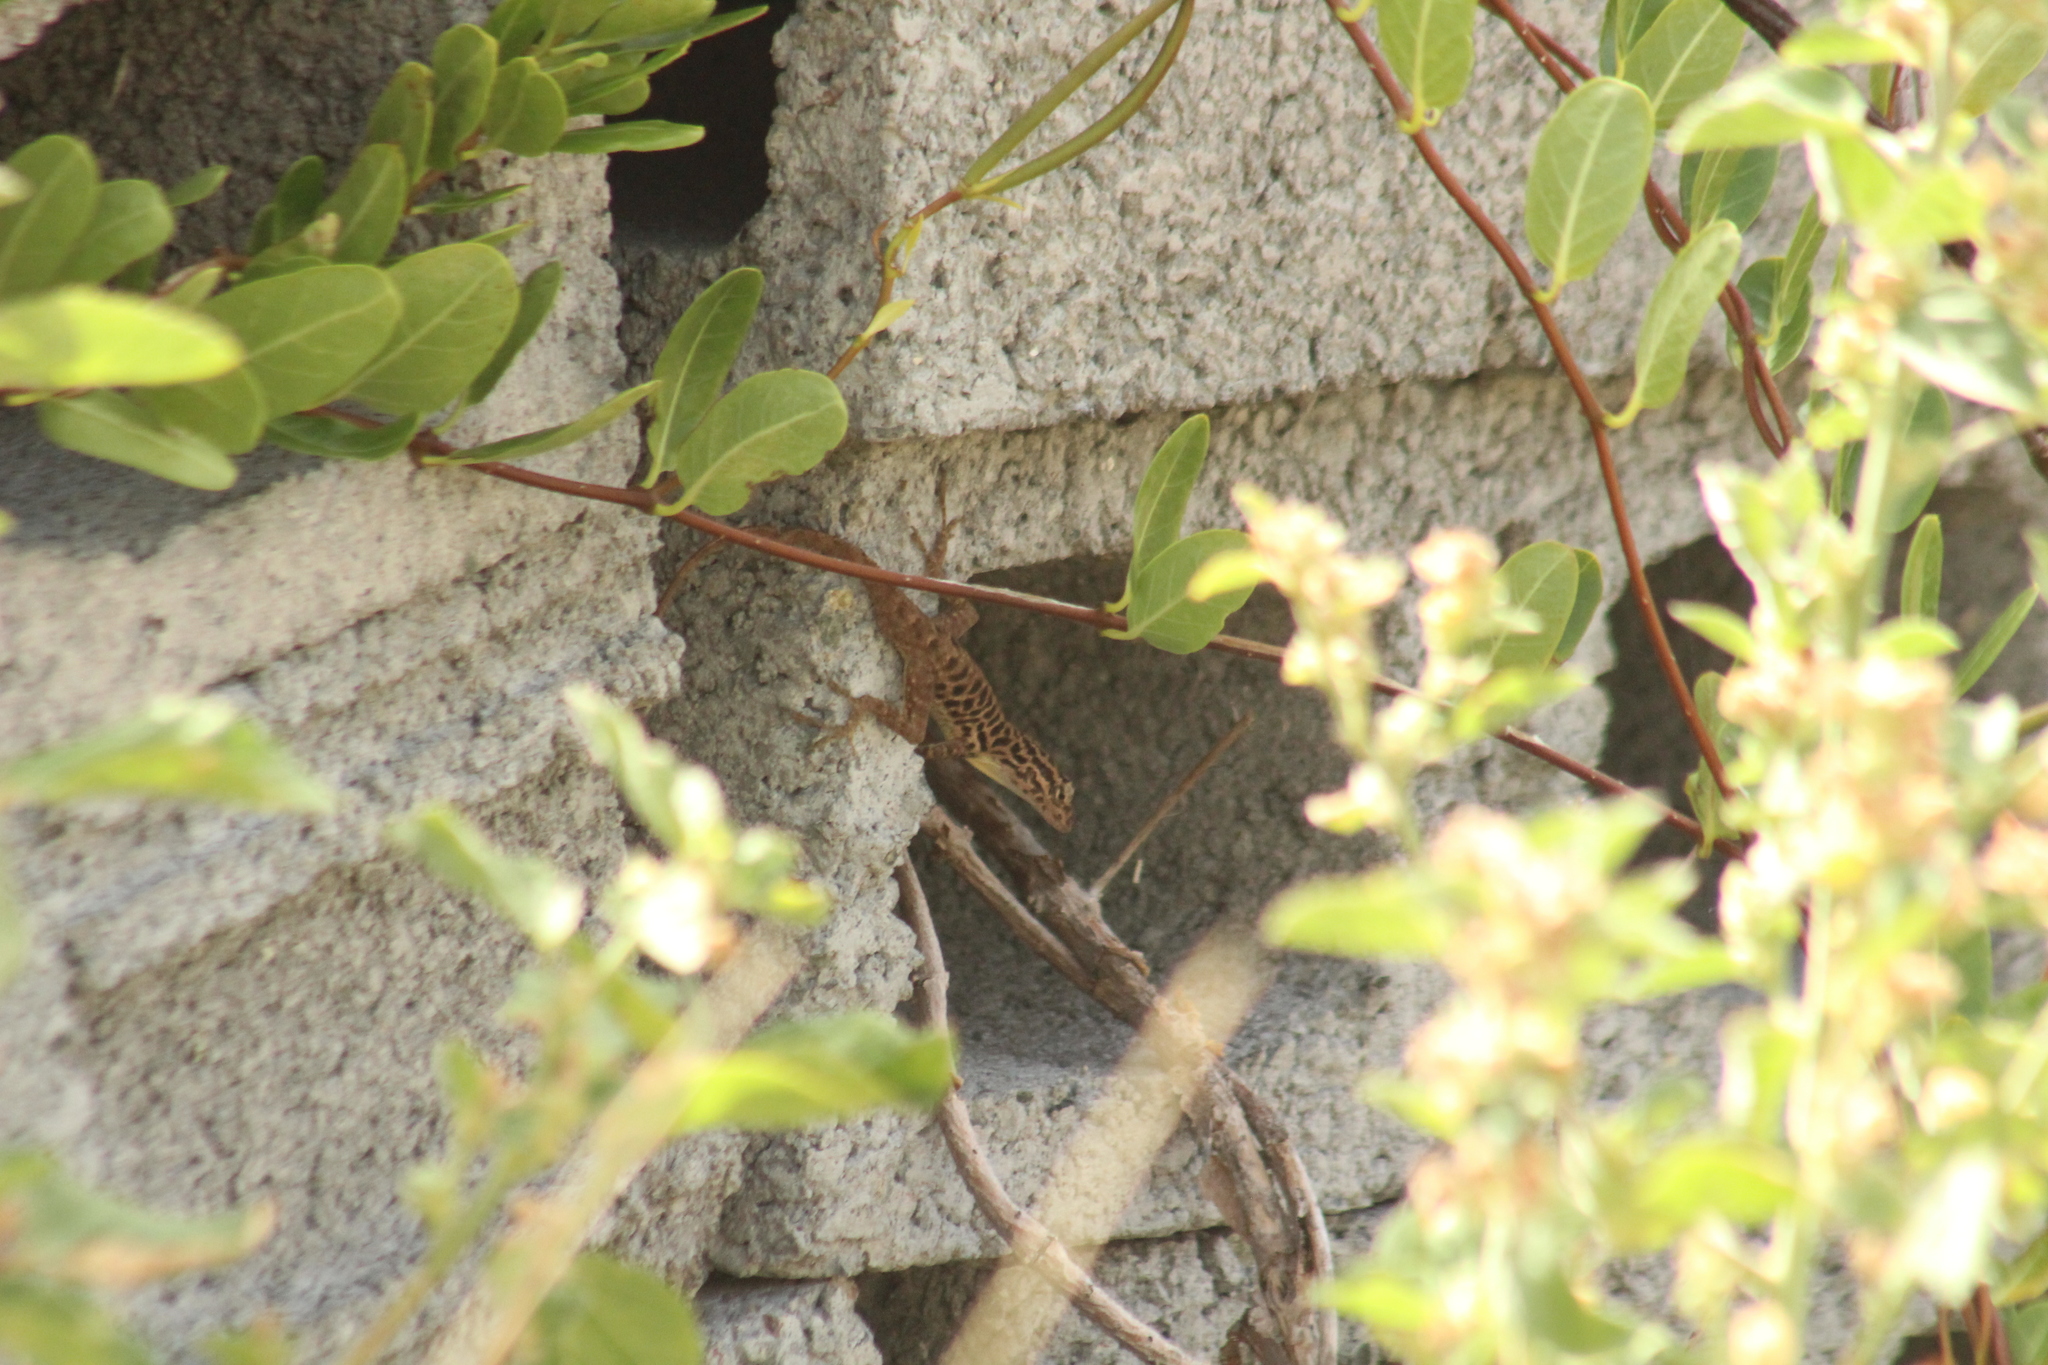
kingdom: Animalia
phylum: Chordata
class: Squamata
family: Dactyloidae
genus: Anolis
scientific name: Anolis sabanus
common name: Saba anole
